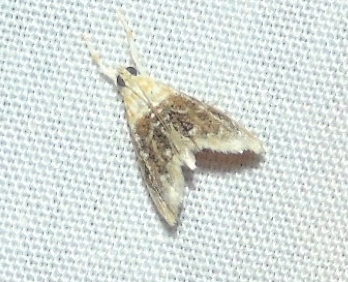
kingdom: Animalia
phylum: Arthropoda
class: Insecta
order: Lepidoptera
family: Crambidae
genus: Glaphyria
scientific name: Glaphyria
